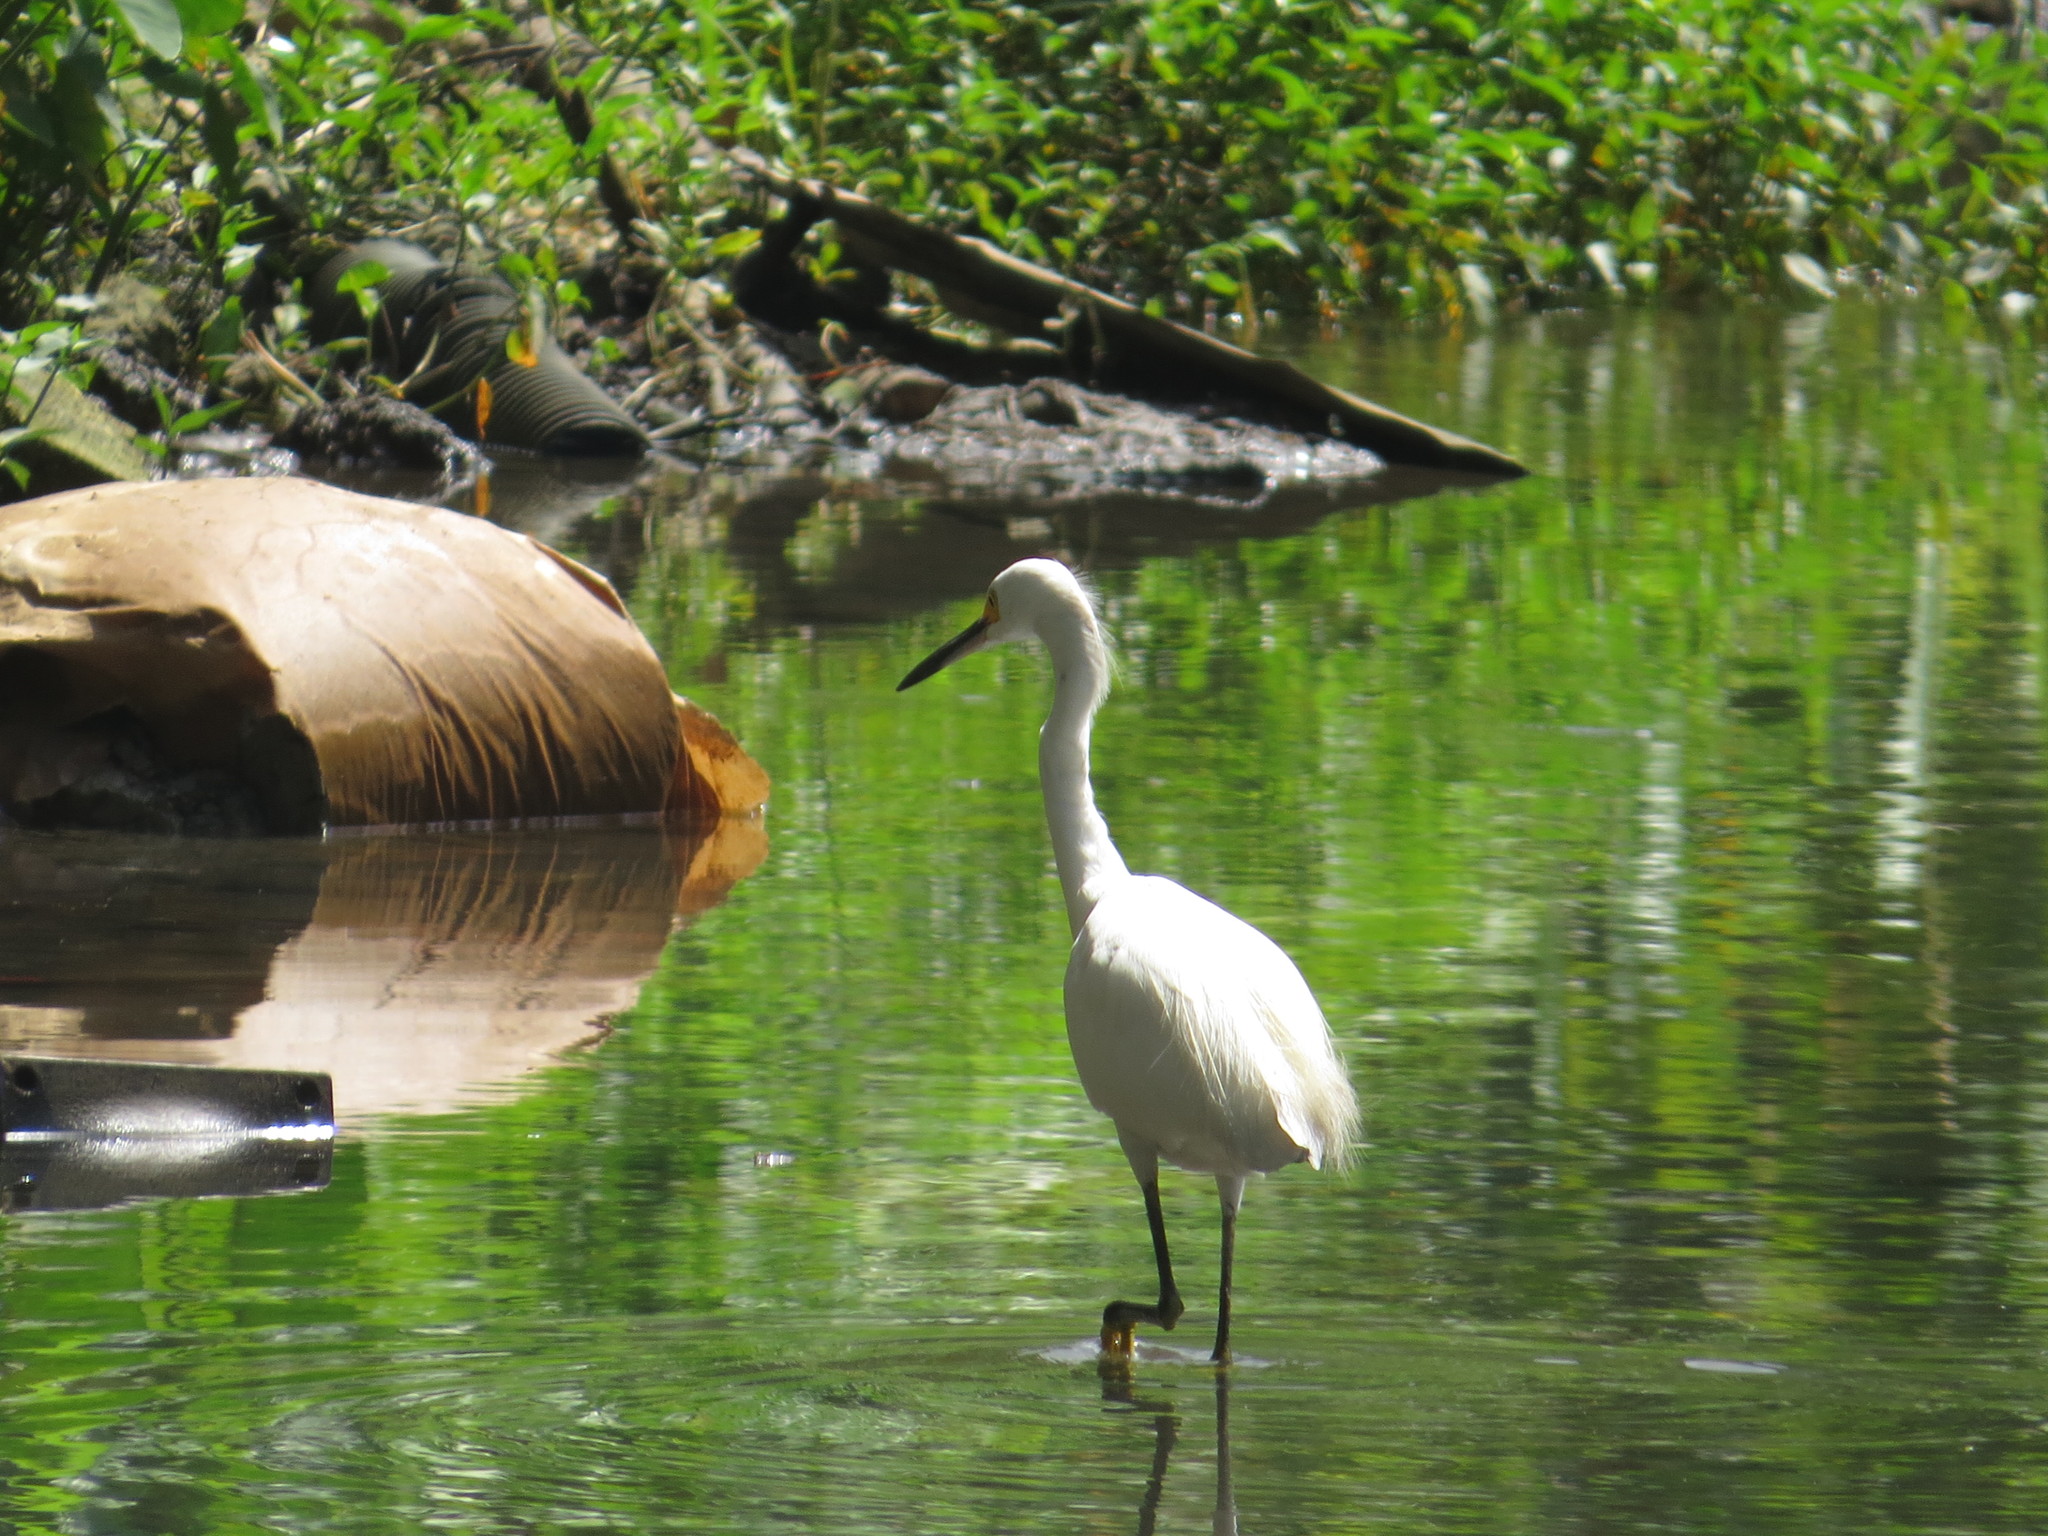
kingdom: Animalia
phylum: Chordata
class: Aves
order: Pelecaniformes
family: Ardeidae
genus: Egretta
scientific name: Egretta thula
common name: Snowy egret
